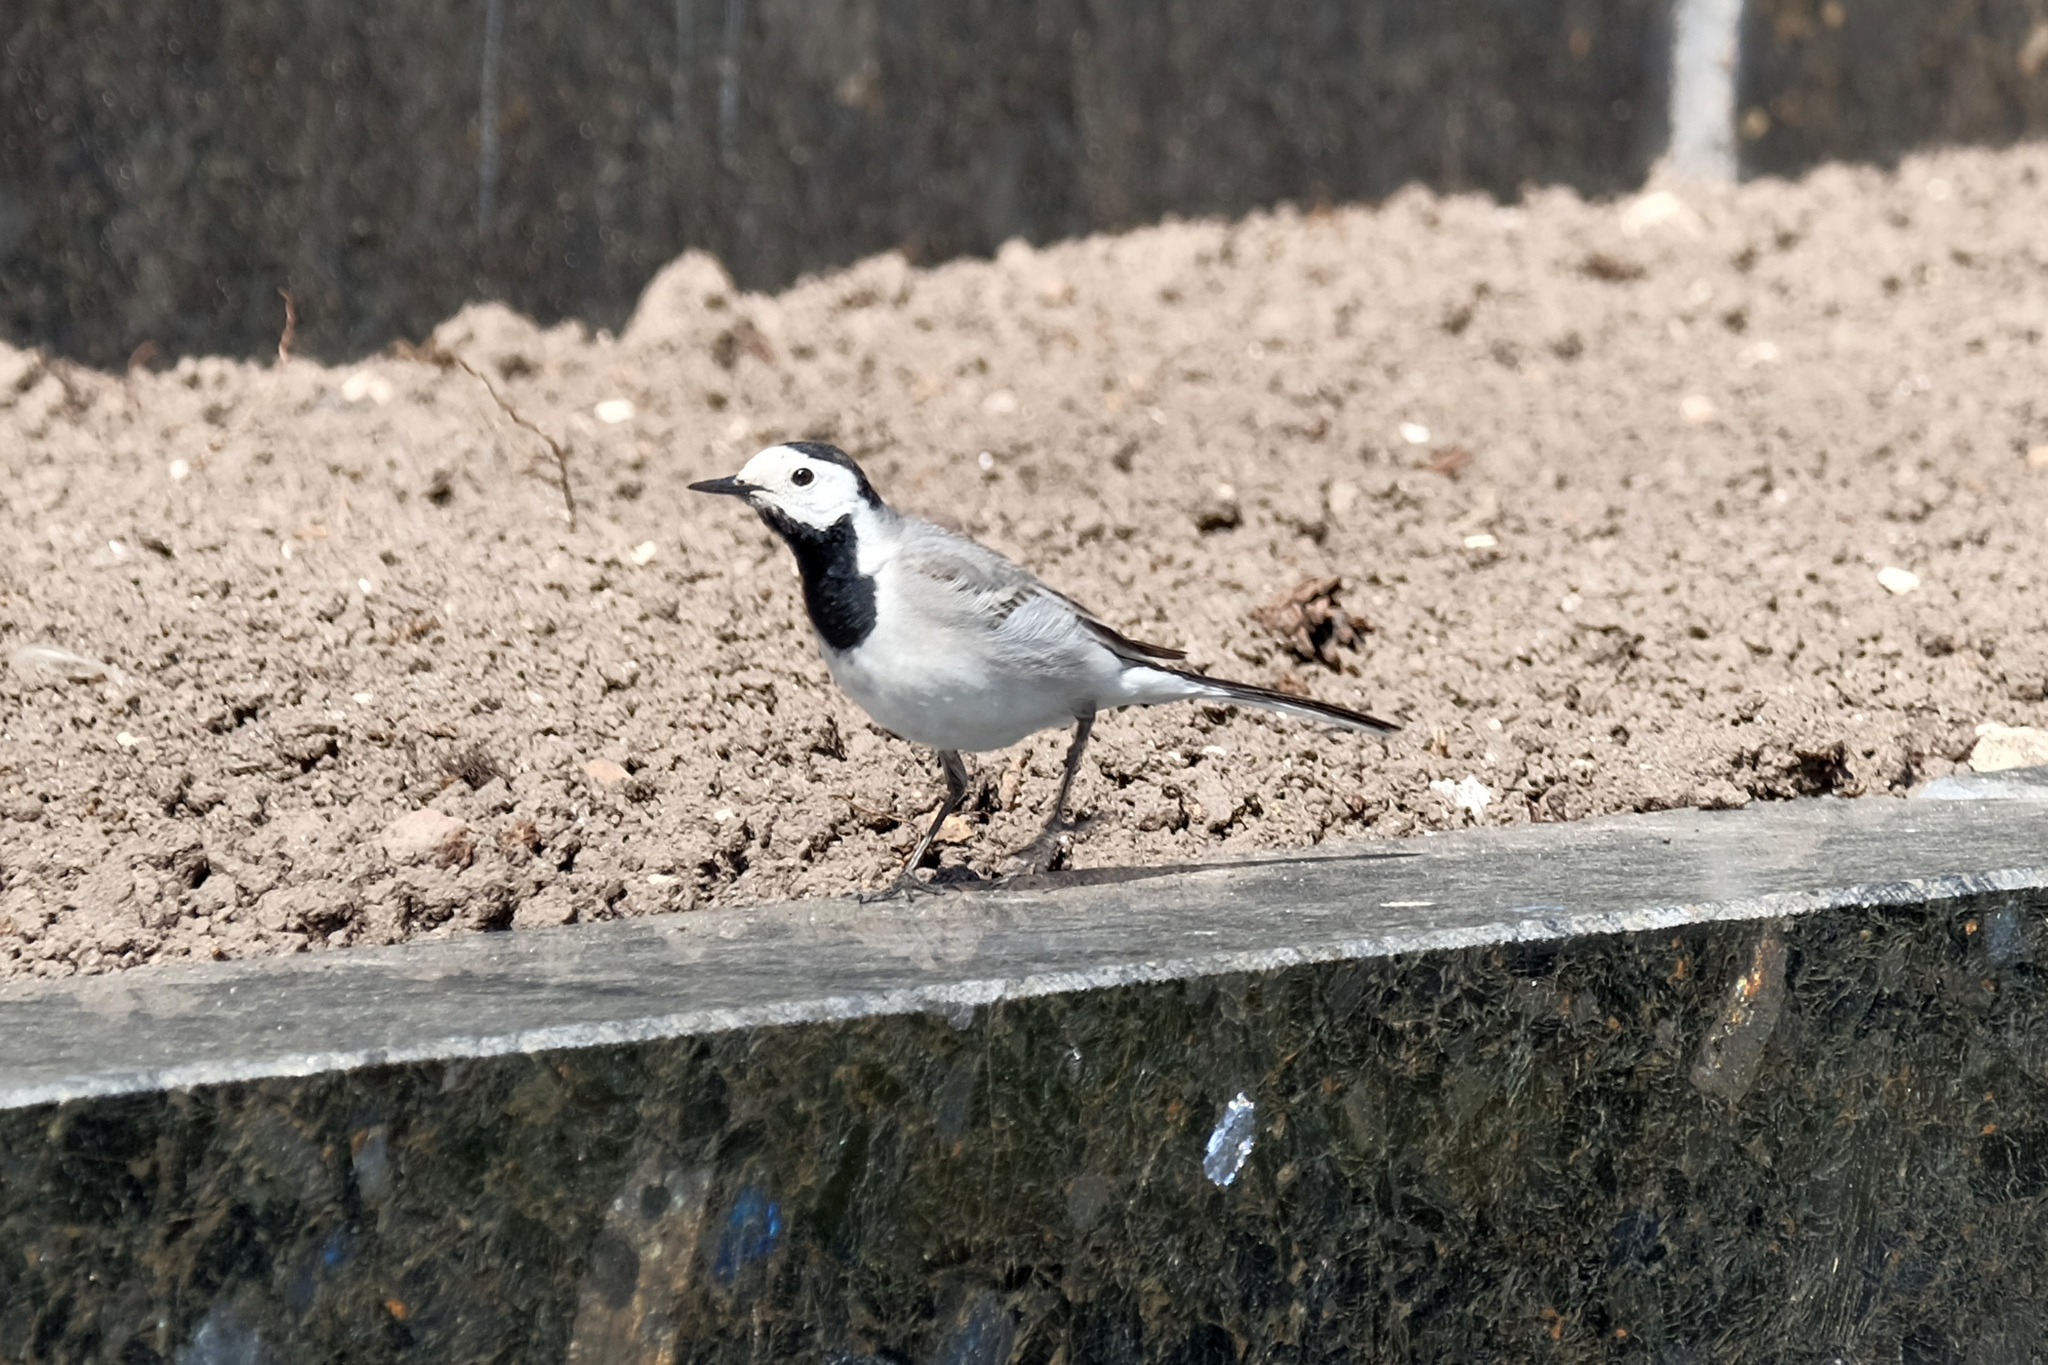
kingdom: Animalia
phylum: Chordata
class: Aves
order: Passeriformes
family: Motacillidae
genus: Motacilla
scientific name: Motacilla alba
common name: White wagtail
